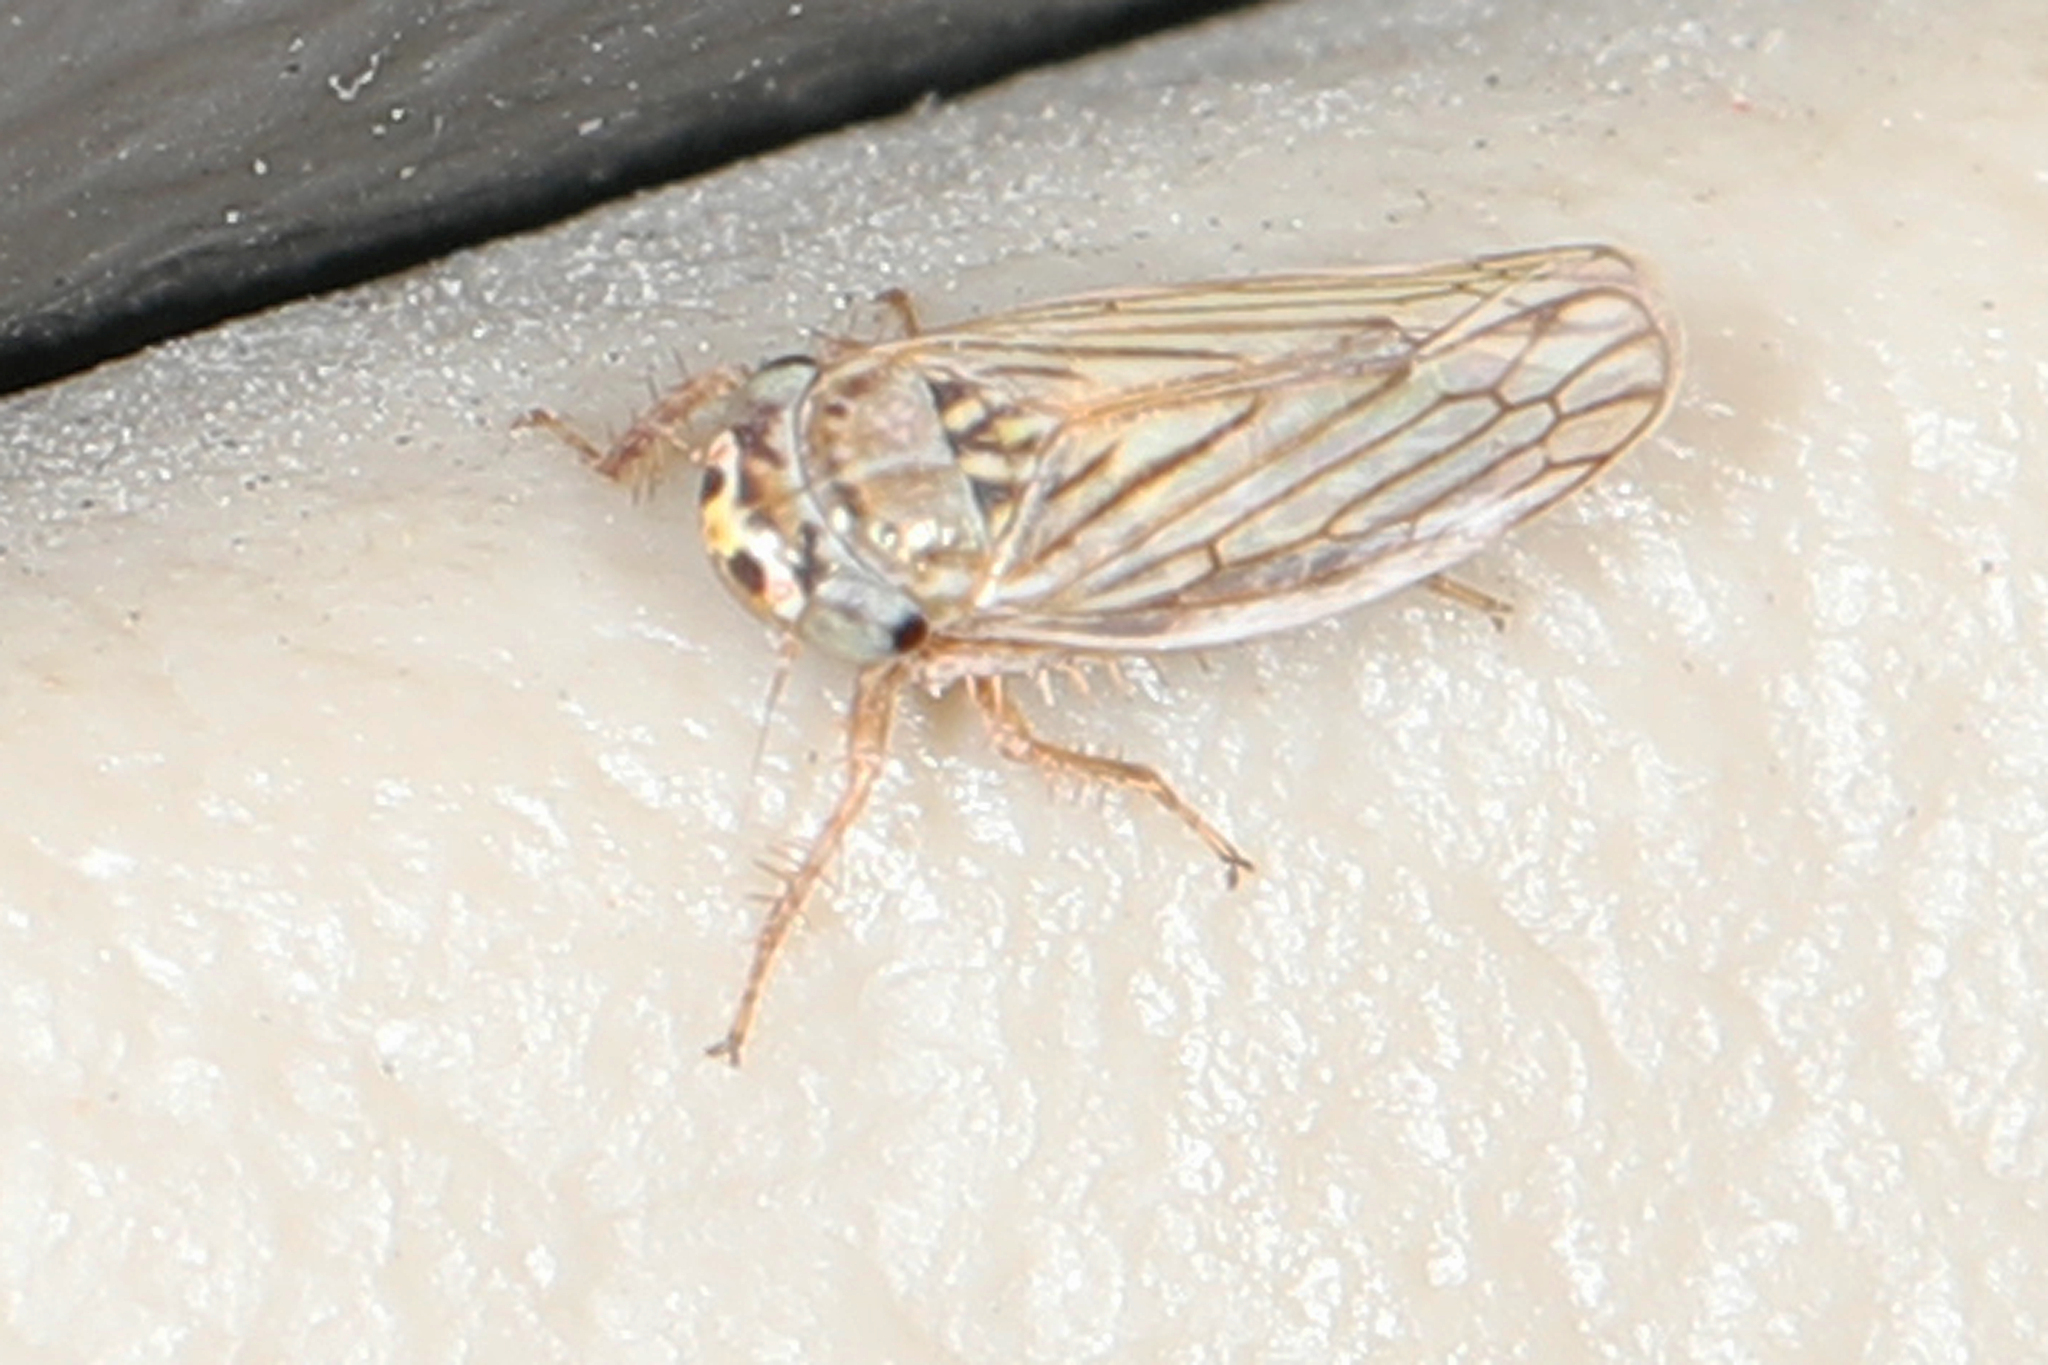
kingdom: Animalia
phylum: Arthropoda
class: Insecta
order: Hemiptera
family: Cicadellidae
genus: Exitianus
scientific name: Exitianus exitiosus
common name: Gray lawn leafhopper
